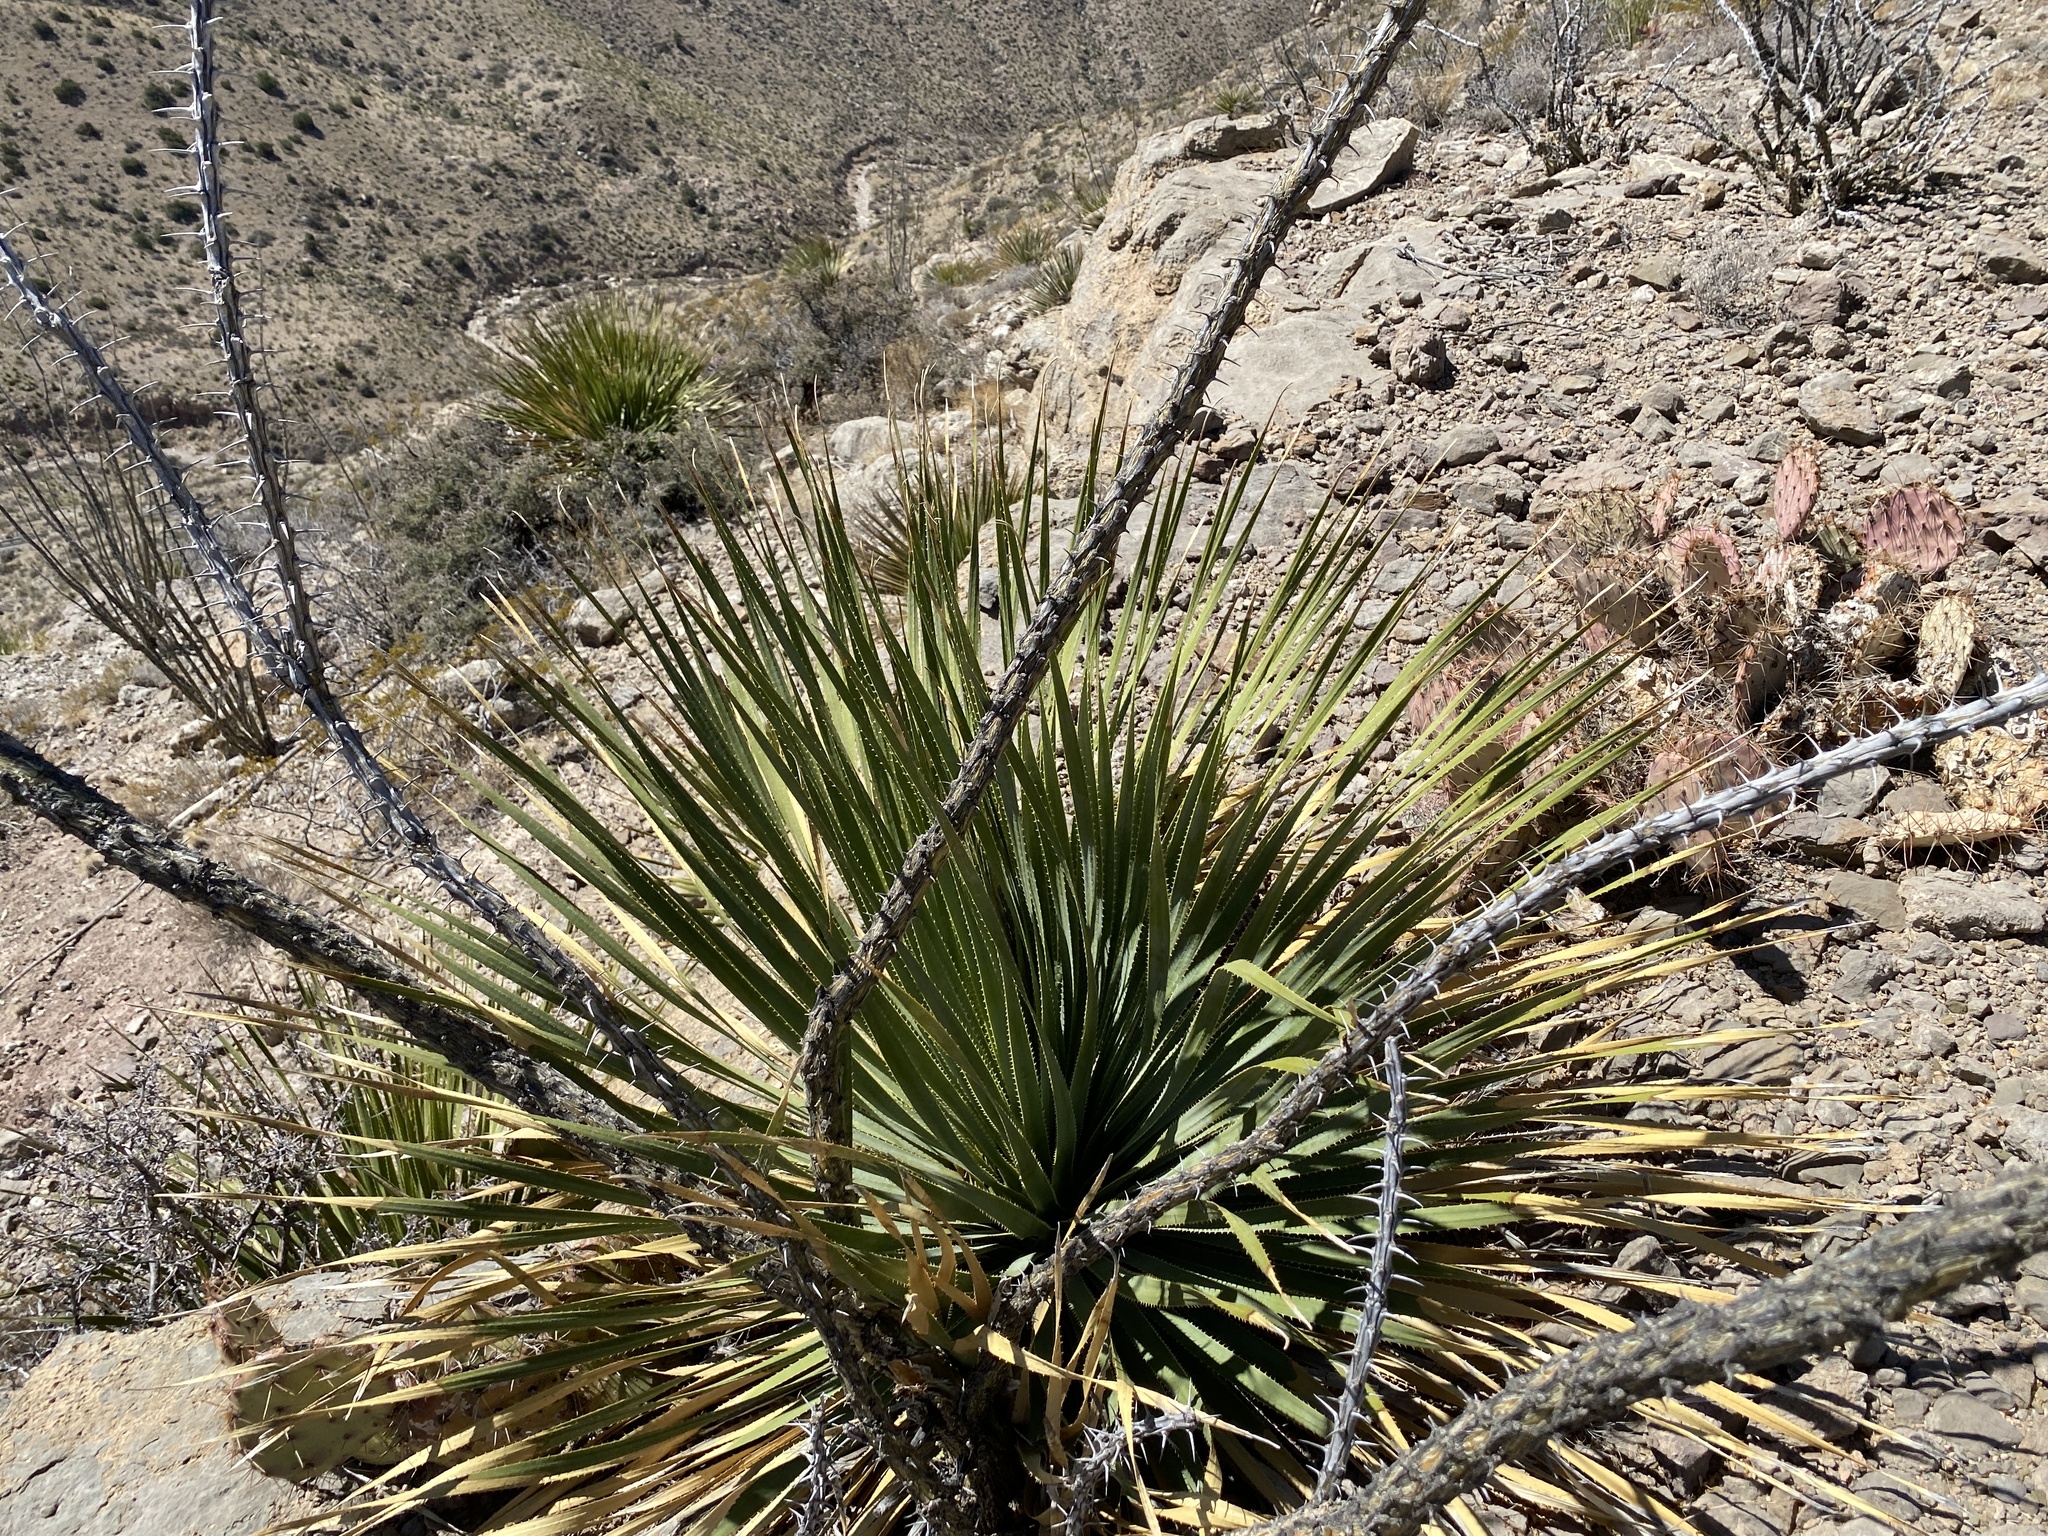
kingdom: Plantae
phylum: Tracheophyta
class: Liliopsida
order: Asparagales
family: Asparagaceae
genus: Dasylirion
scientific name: Dasylirion wheeleri
